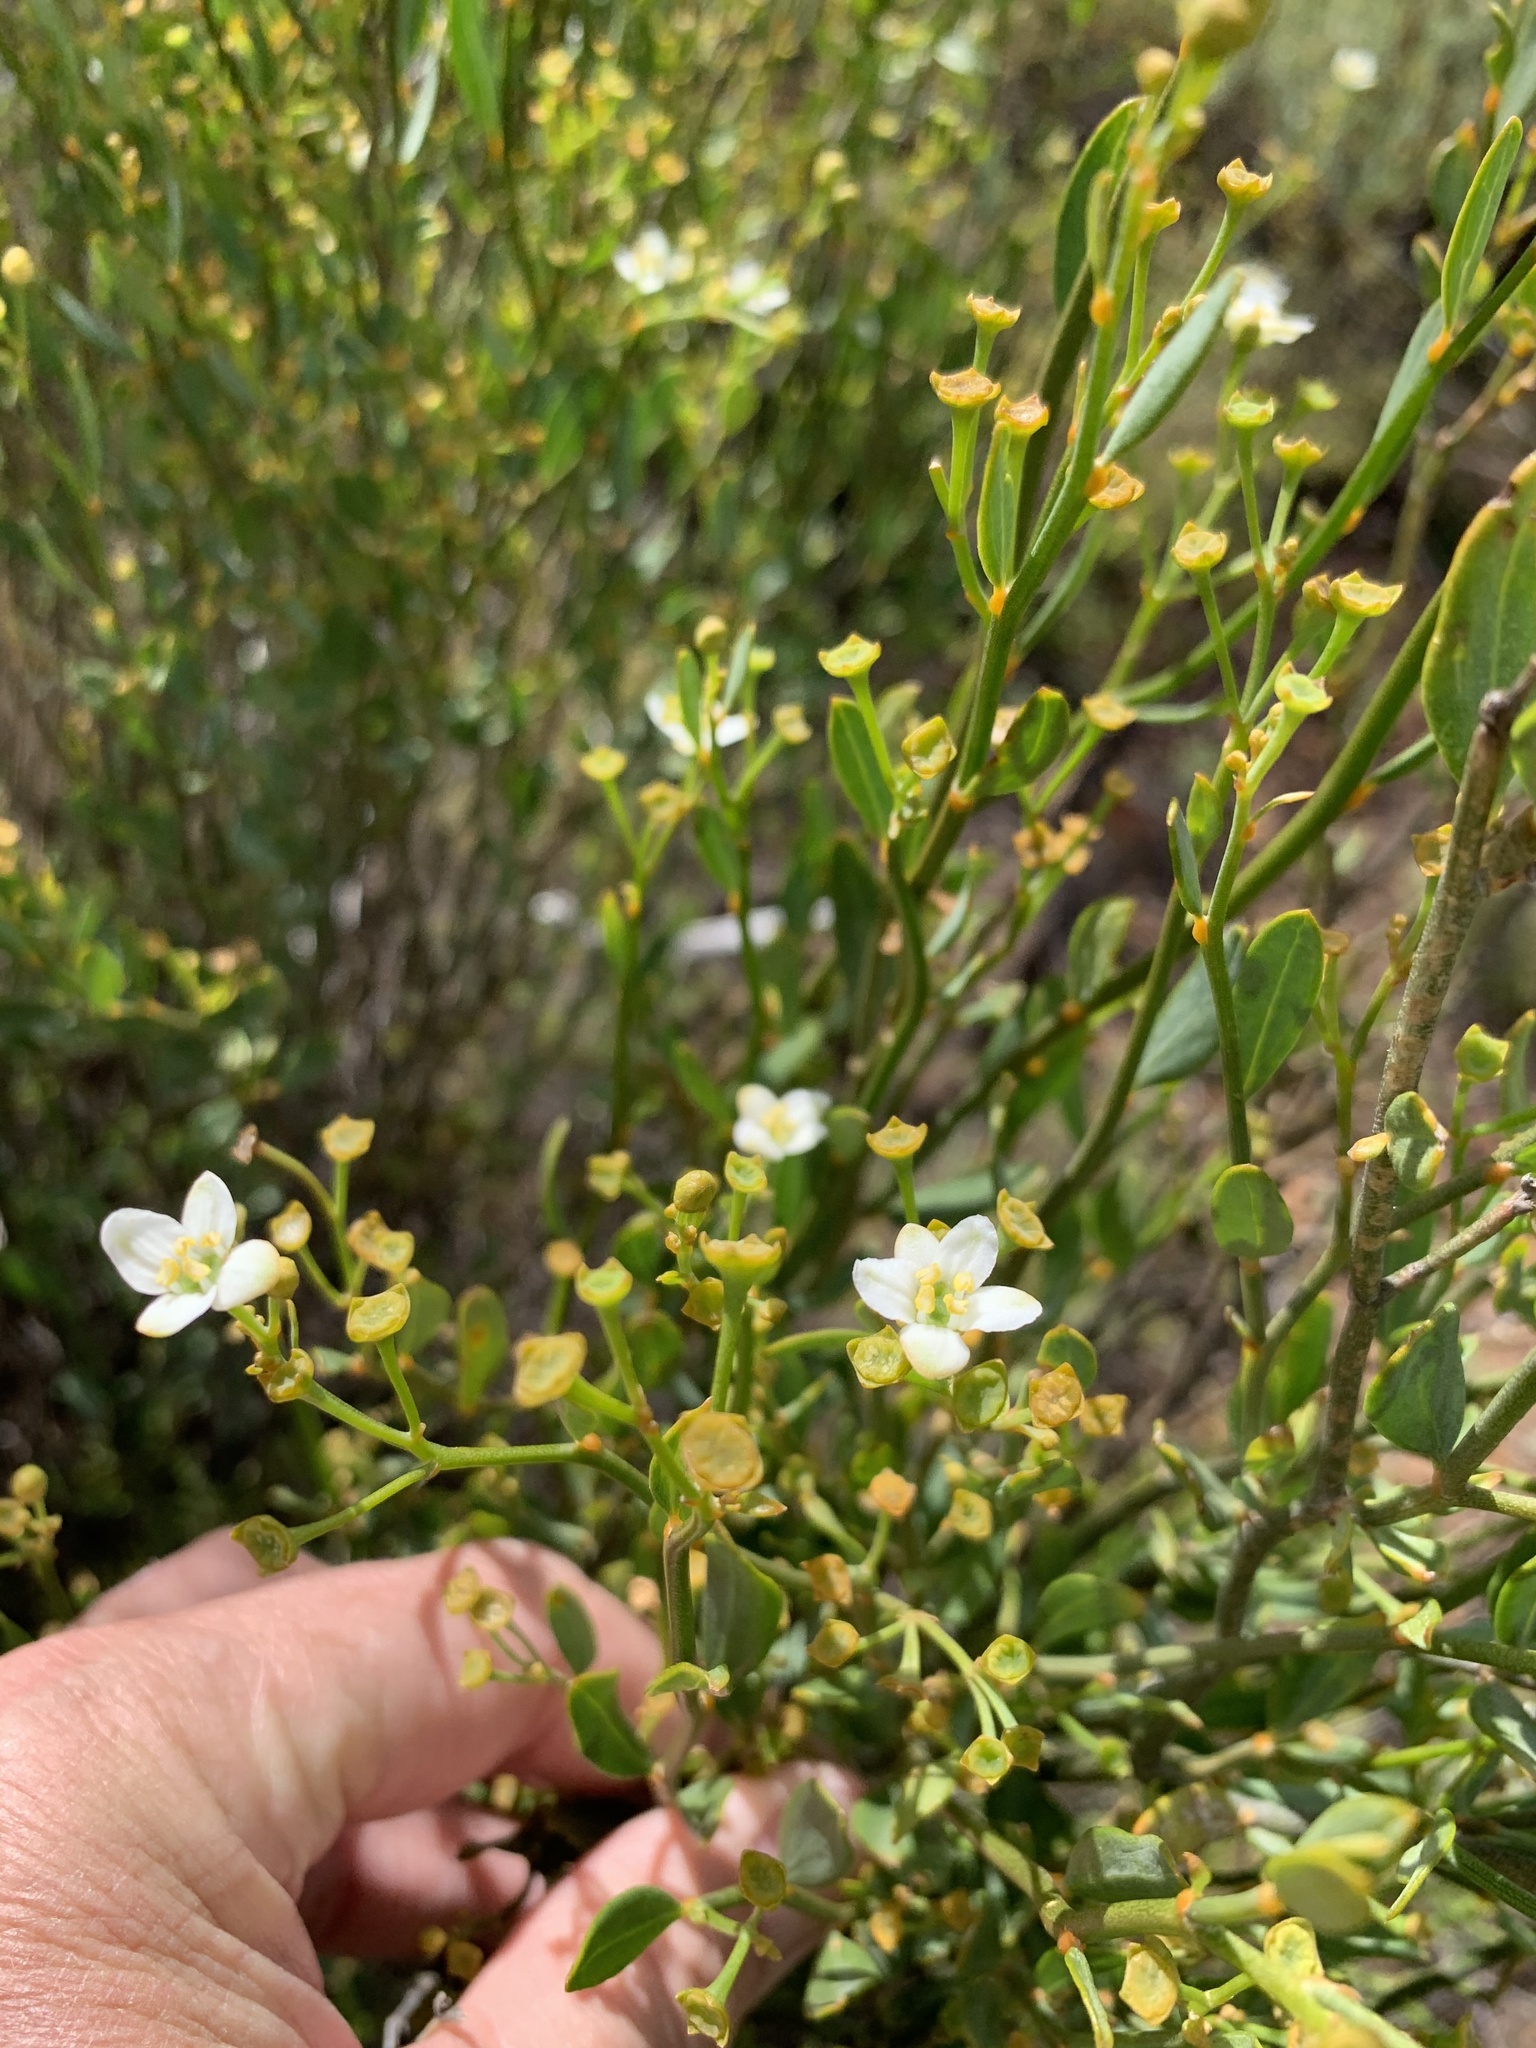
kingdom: Plantae
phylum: Tracheophyta
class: Magnoliopsida
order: Solanales
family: Montiniaceae
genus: Montinia
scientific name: Montinia caryophyllacea
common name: Wild clove-bush
